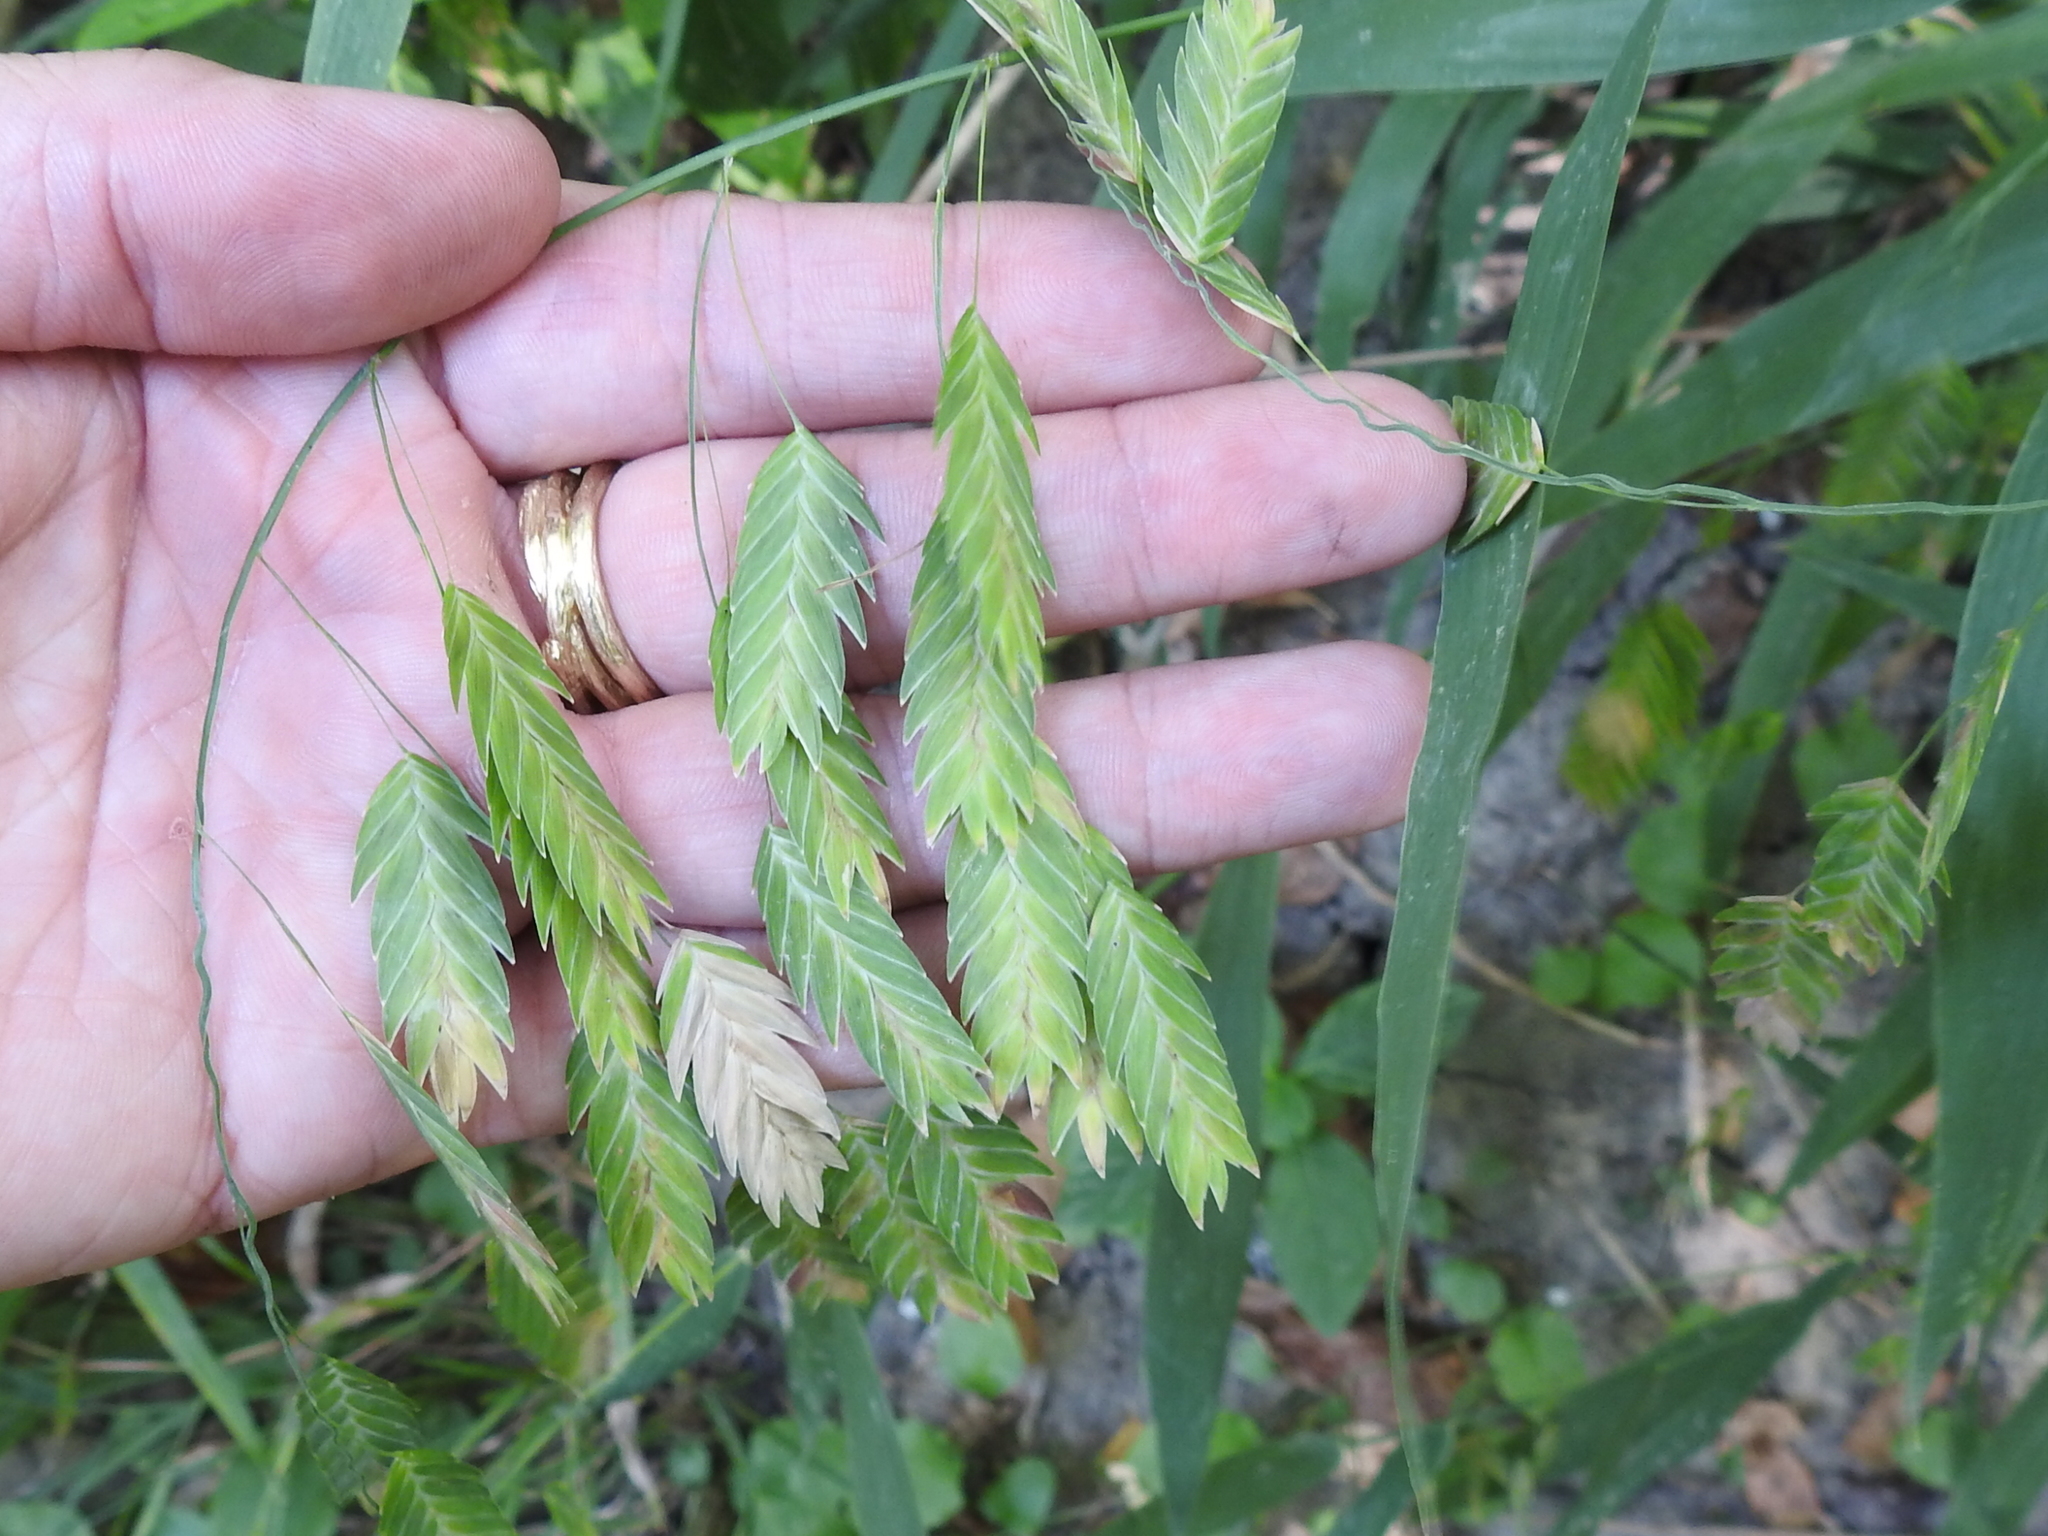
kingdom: Plantae
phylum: Tracheophyta
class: Liliopsida
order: Poales
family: Poaceae
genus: Chasmanthium
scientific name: Chasmanthium latifolium
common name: Broad-leaved chasmanthium
